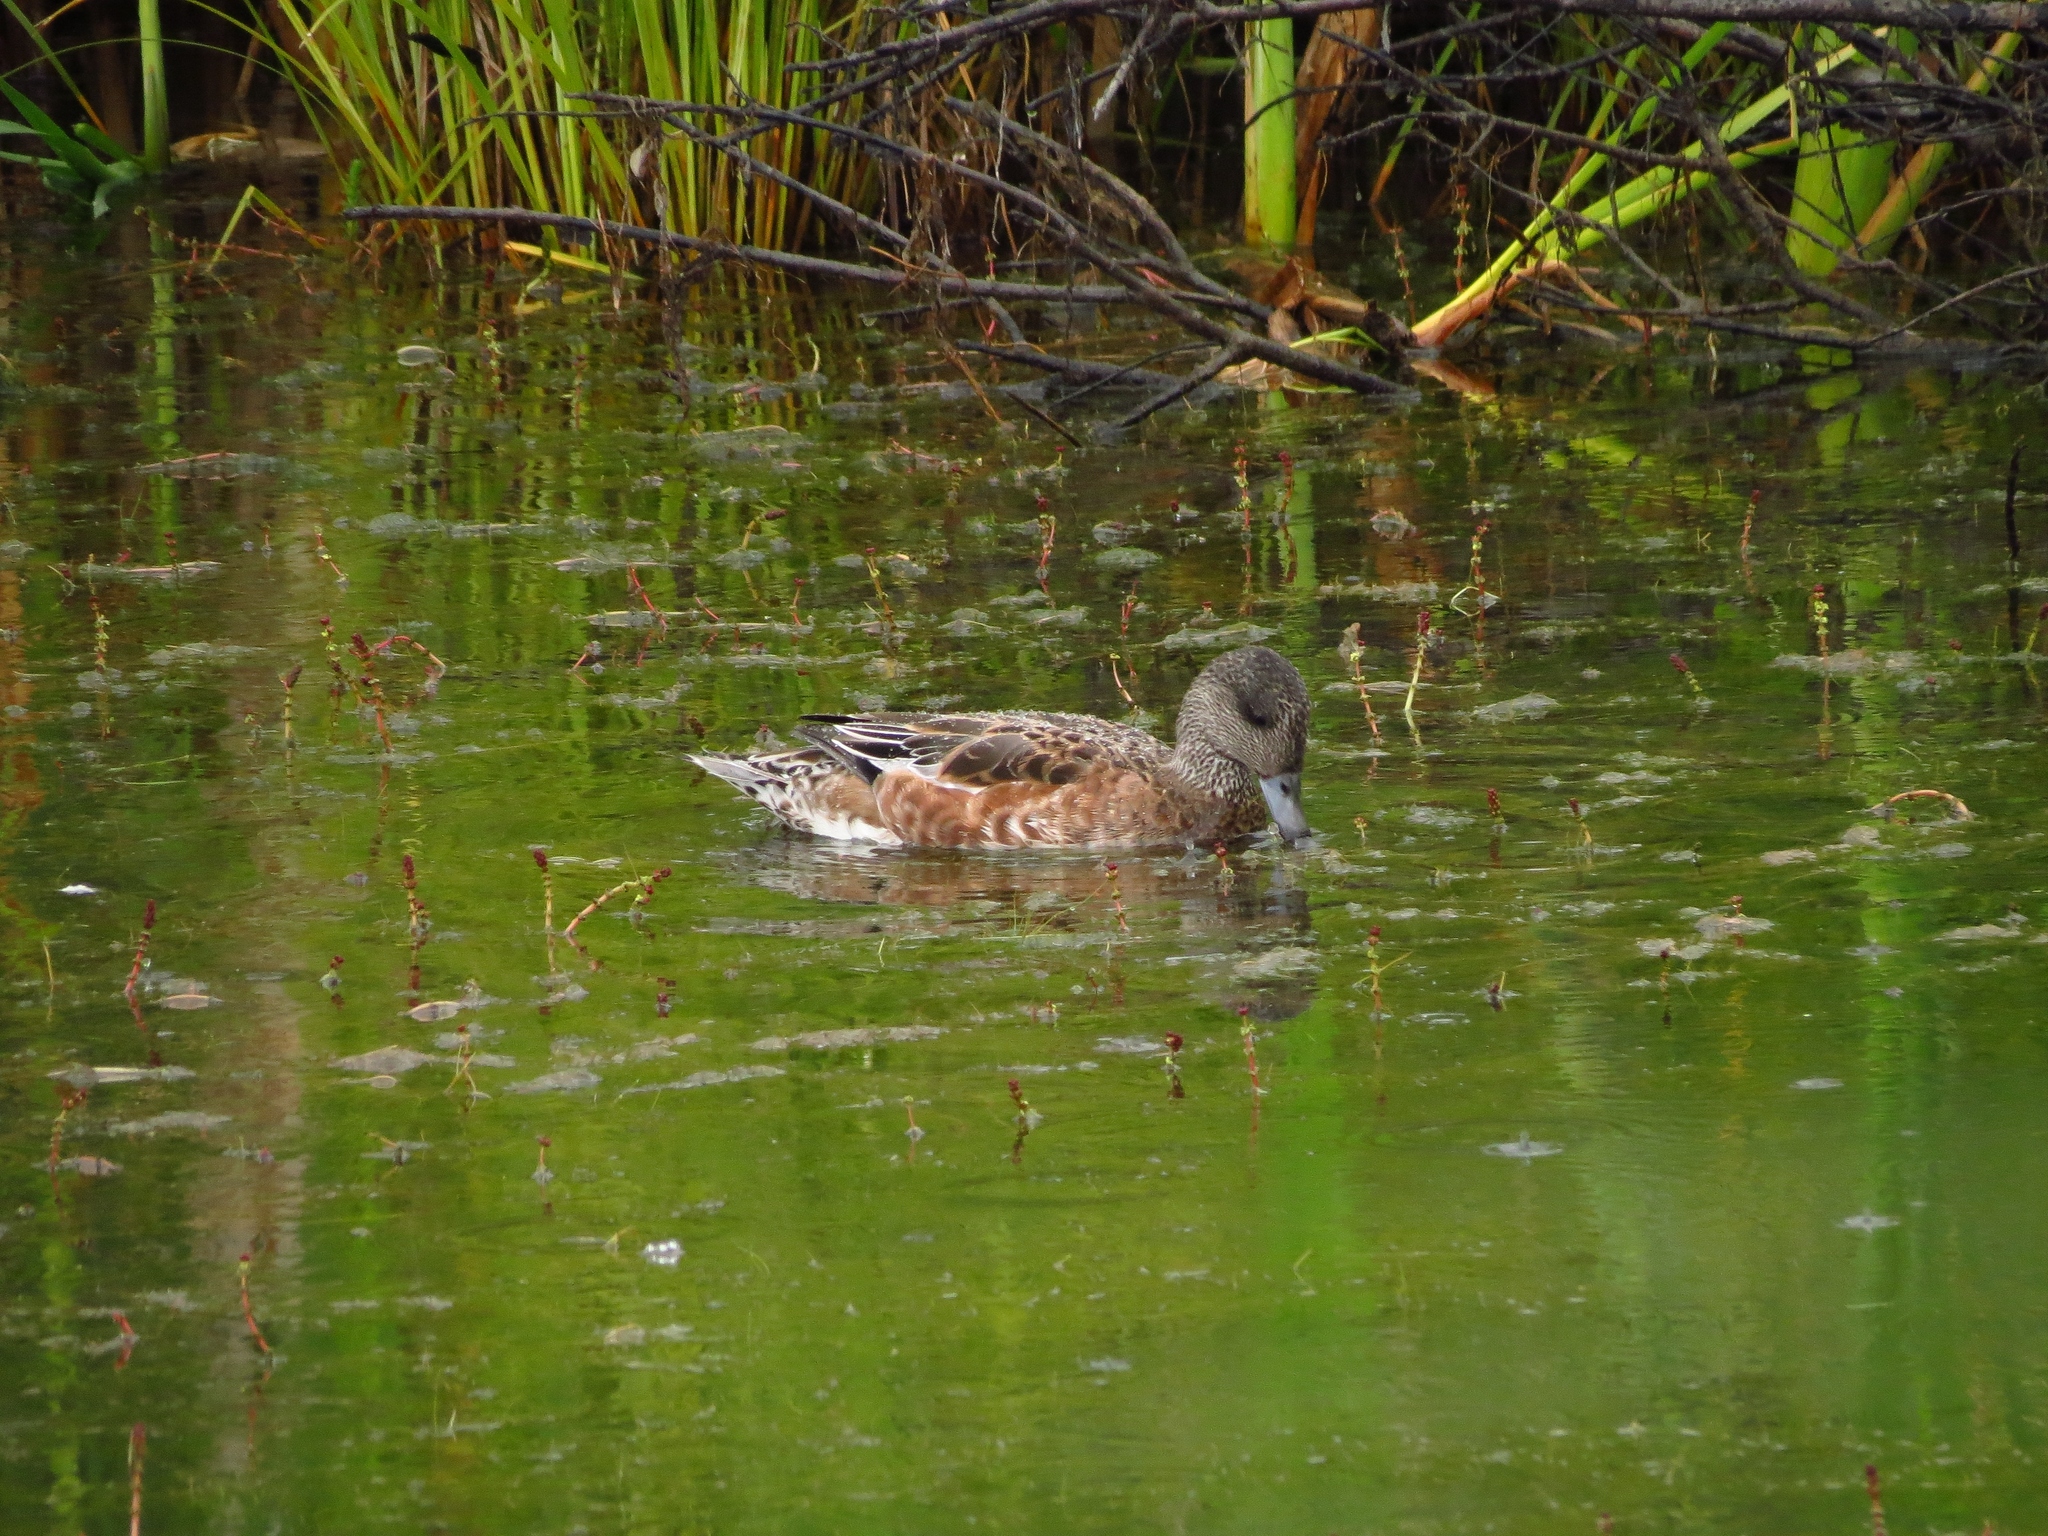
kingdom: Animalia
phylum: Chordata
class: Aves
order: Anseriformes
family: Anatidae
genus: Mareca
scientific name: Mareca americana
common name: American wigeon
